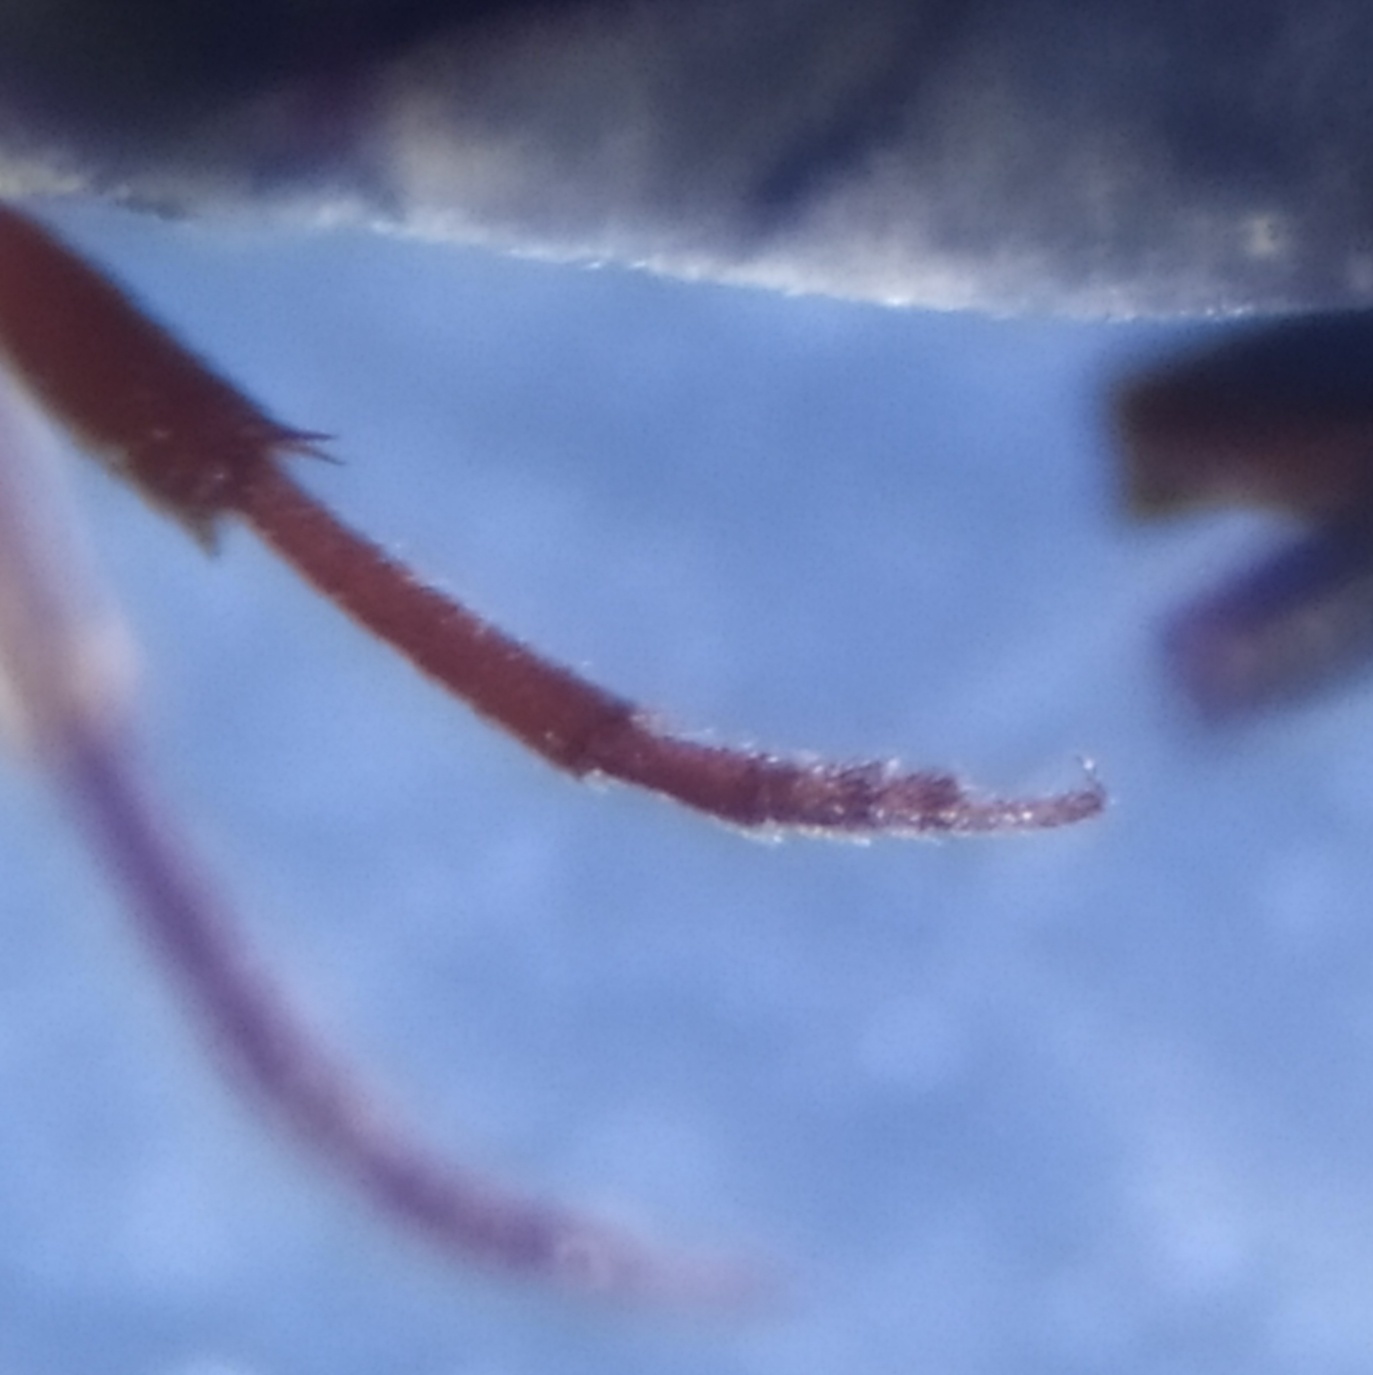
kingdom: Animalia
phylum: Arthropoda
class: Insecta
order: Coleoptera
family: Eucnemidae
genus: Hylis
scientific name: Hylis cariniceps
